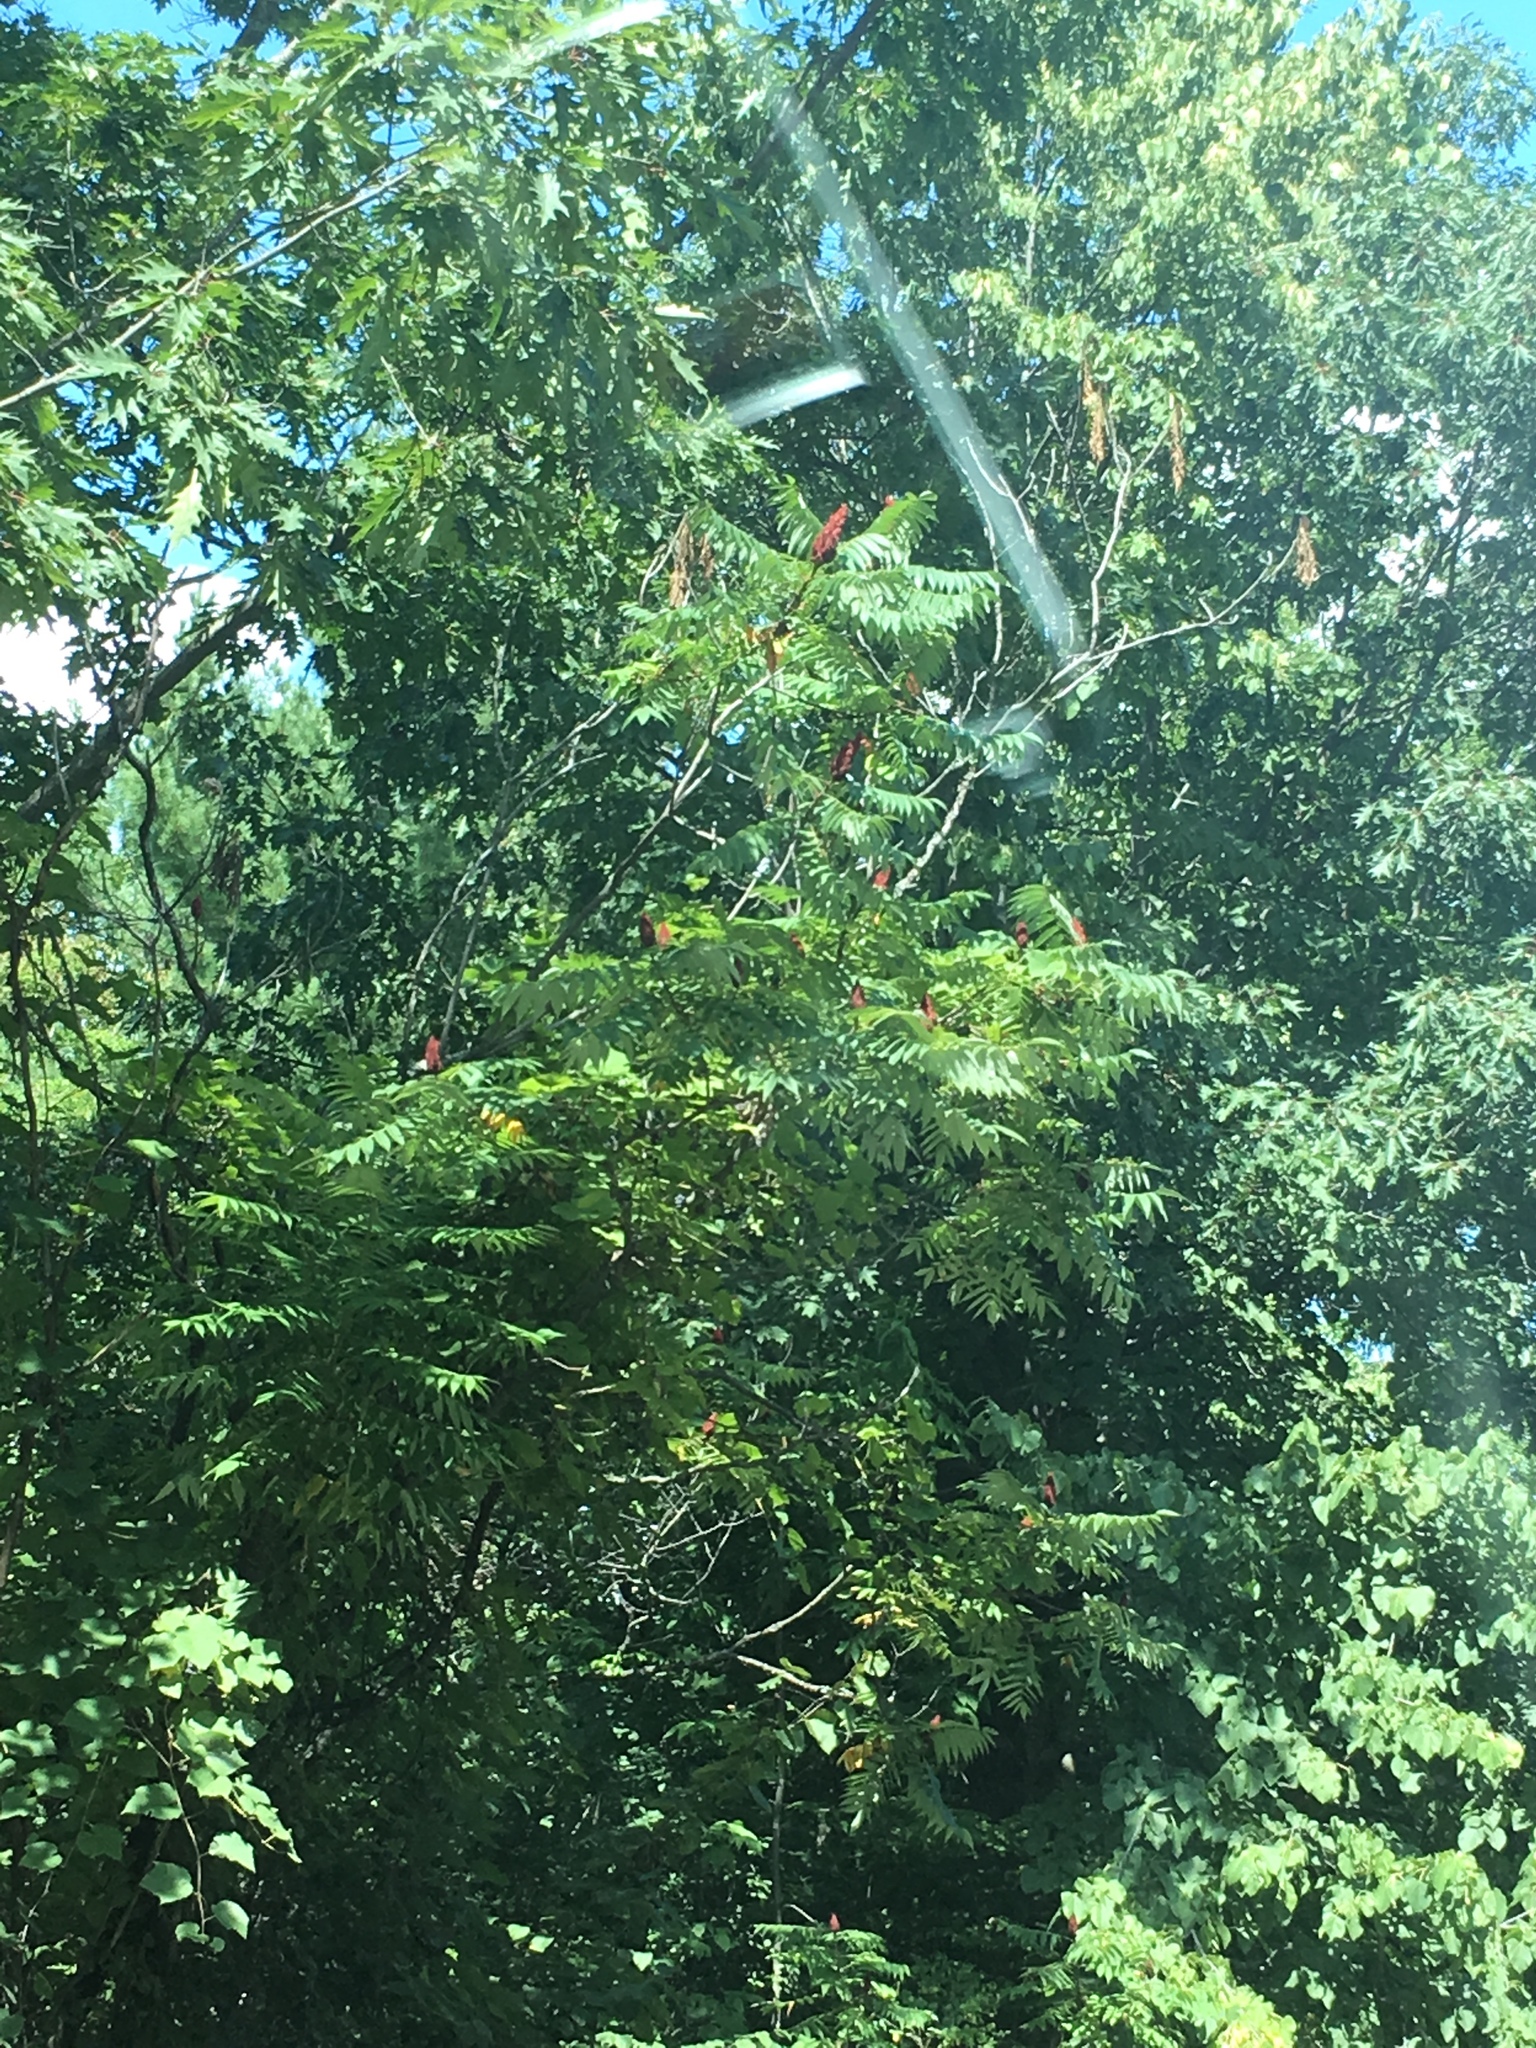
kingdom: Plantae
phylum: Tracheophyta
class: Magnoliopsida
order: Sapindales
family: Anacardiaceae
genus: Rhus
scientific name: Rhus typhina
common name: Staghorn sumac
